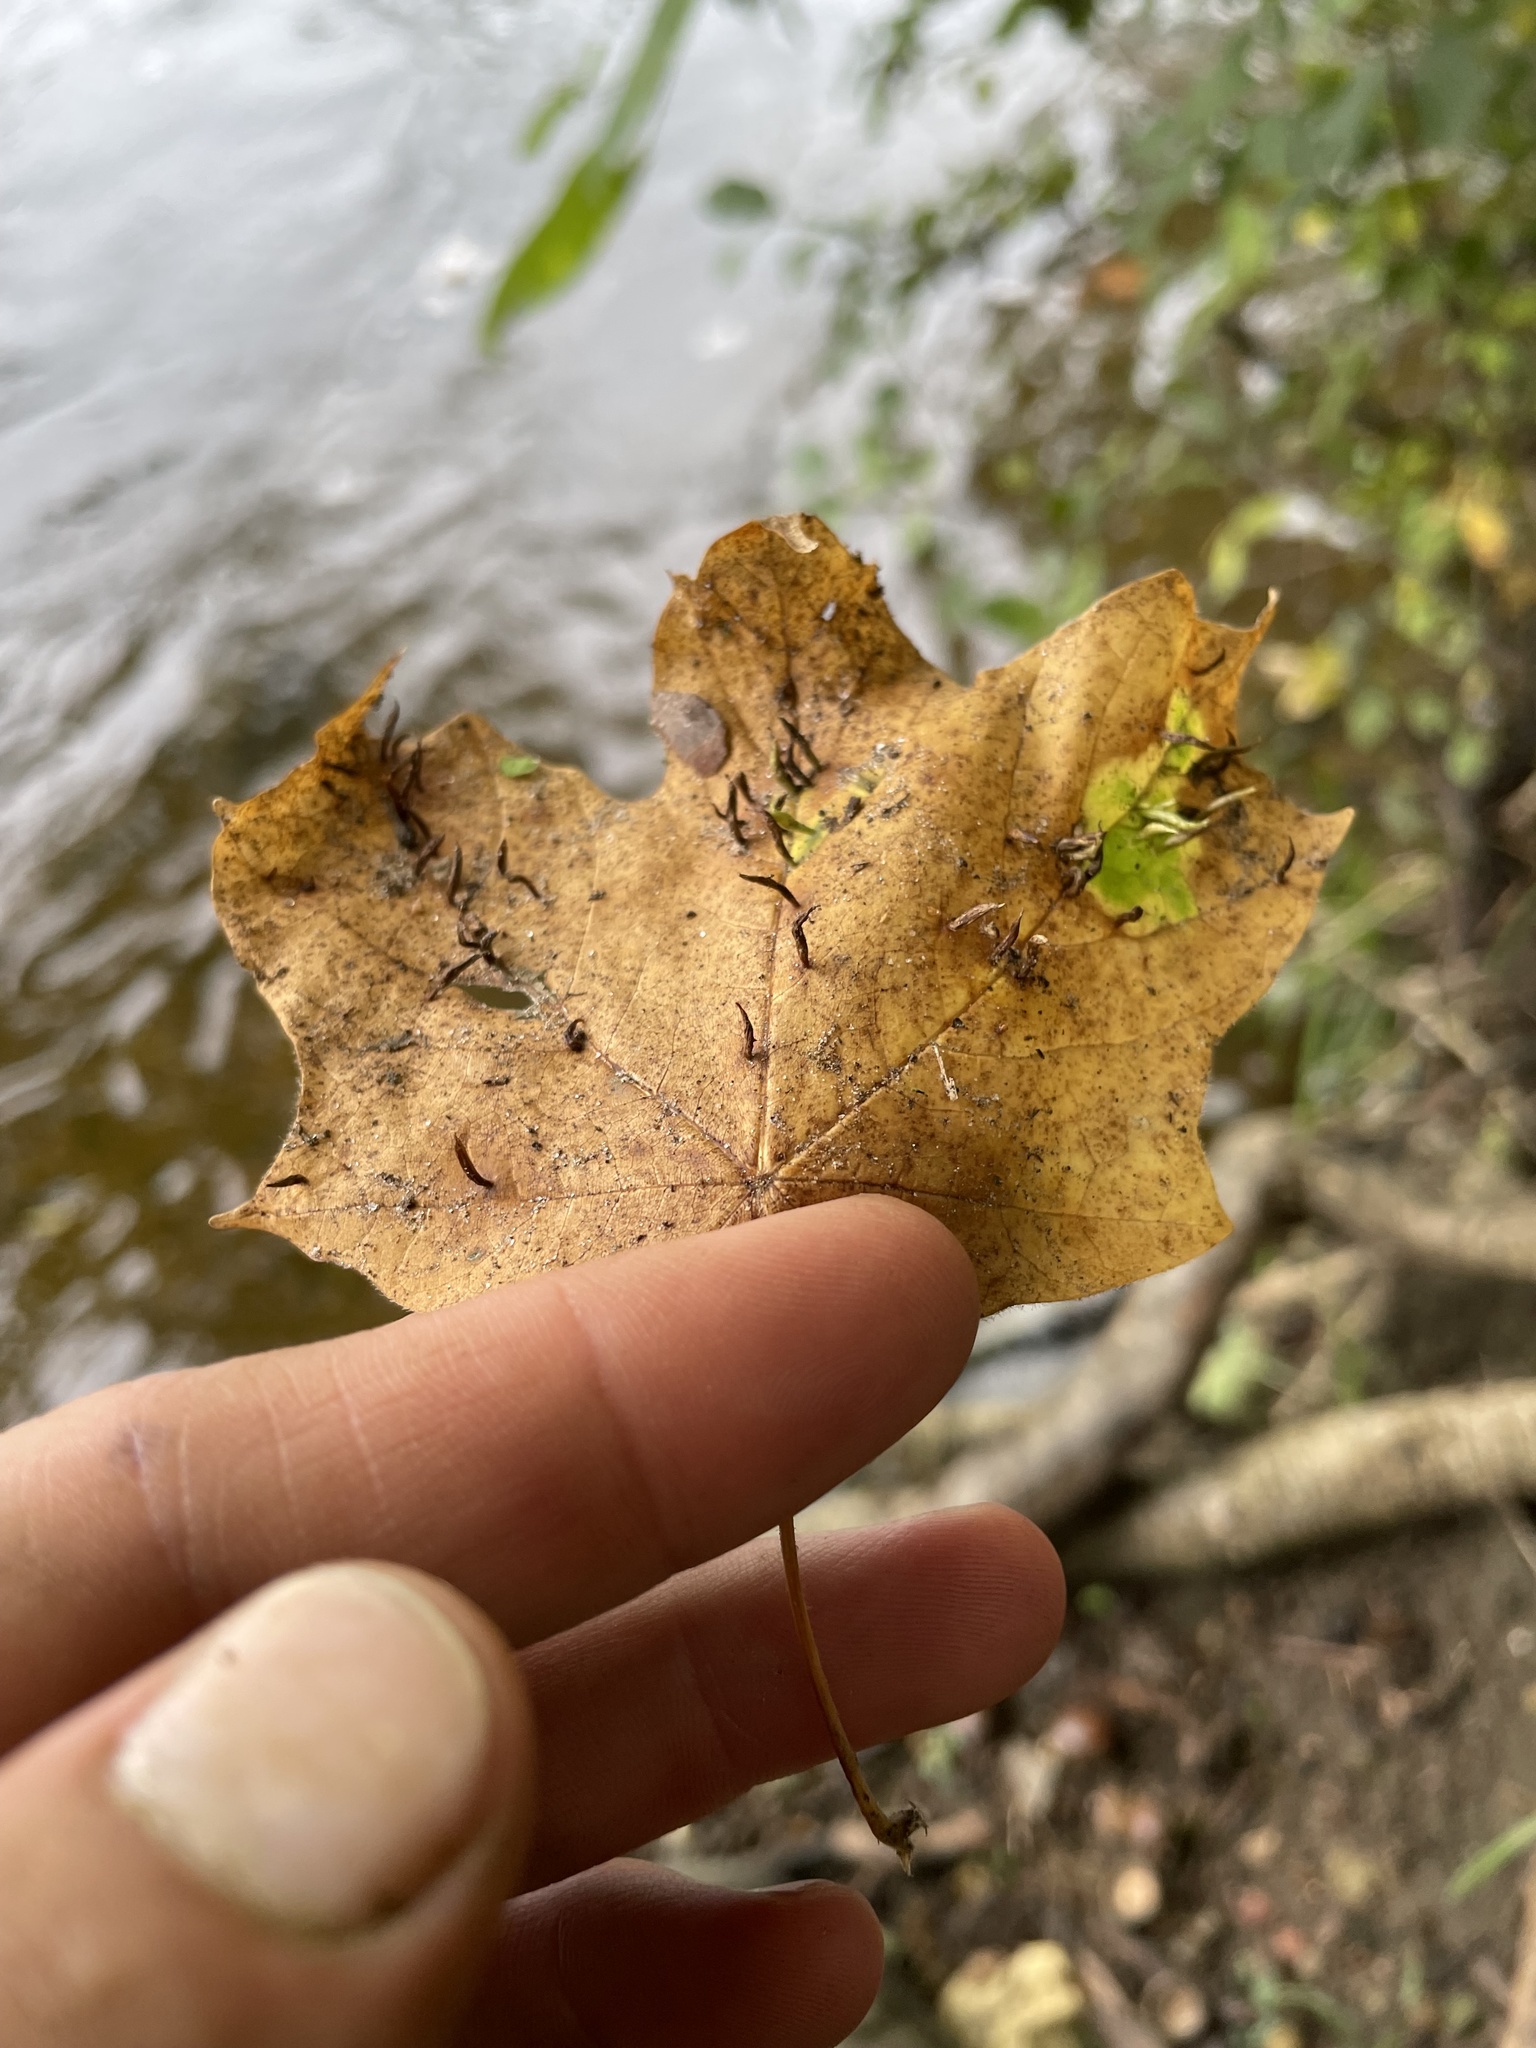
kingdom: Animalia
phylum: Arthropoda
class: Arachnida
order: Trombidiformes
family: Eriophyidae
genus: Vasates
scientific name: Vasates aceriscrumena
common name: Maple spindle gall mite
